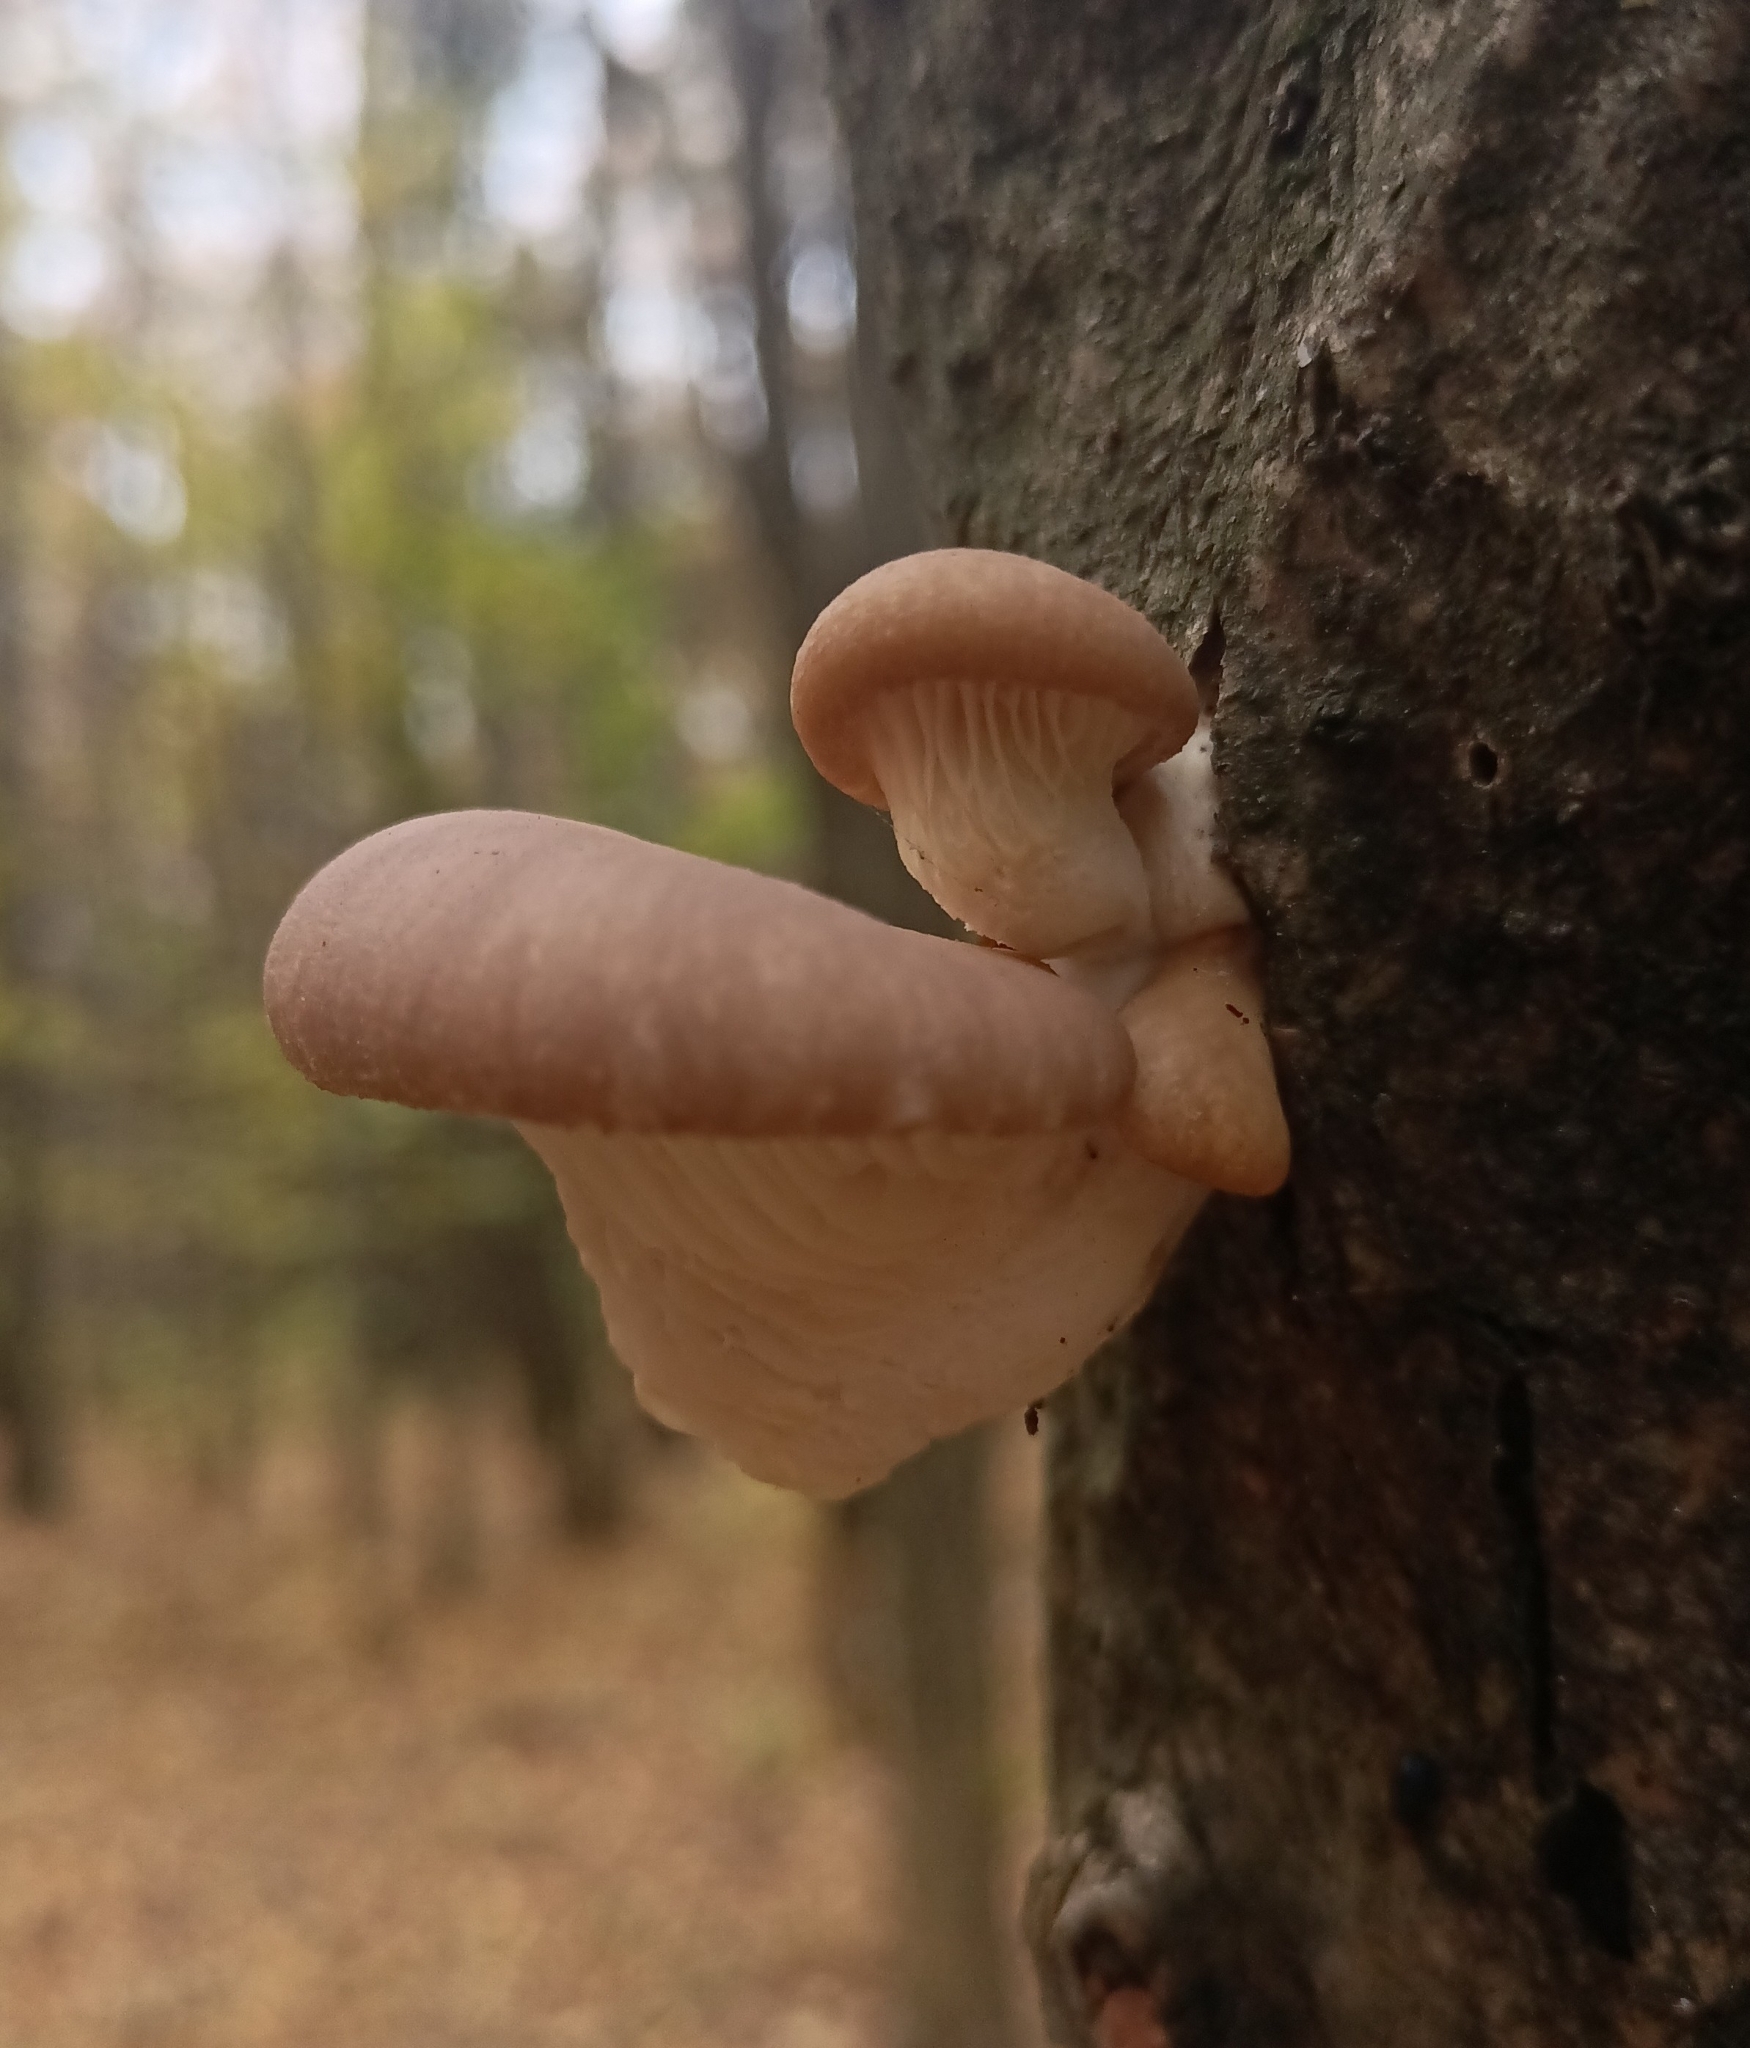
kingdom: Fungi
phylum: Basidiomycota
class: Agaricomycetes
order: Agaricales
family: Pleurotaceae
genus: Pleurotus
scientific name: Pleurotus ostreatus
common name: Oyster mushroom
